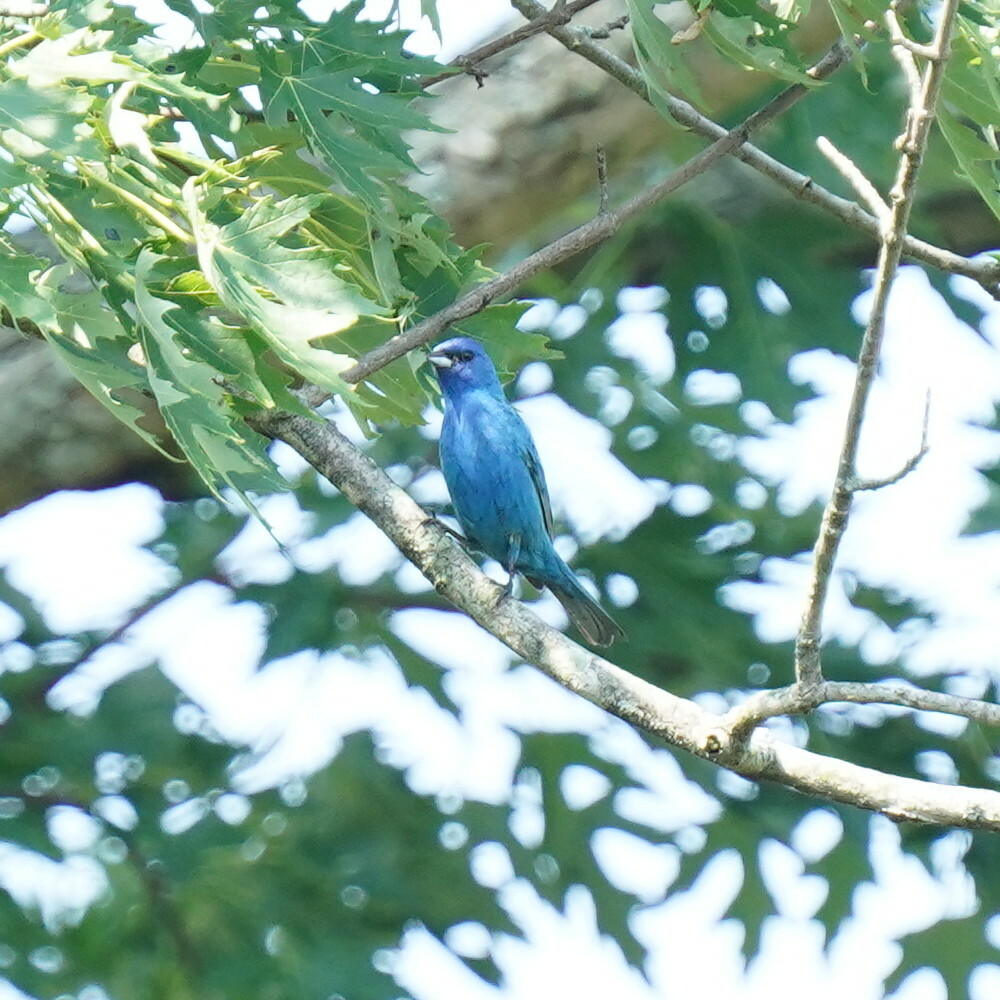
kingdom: Animalia
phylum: Chordata
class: Aves
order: Passeriformes
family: Cardinalidae
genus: Passerina
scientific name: Passerina cyanea
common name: Indigo bunting
